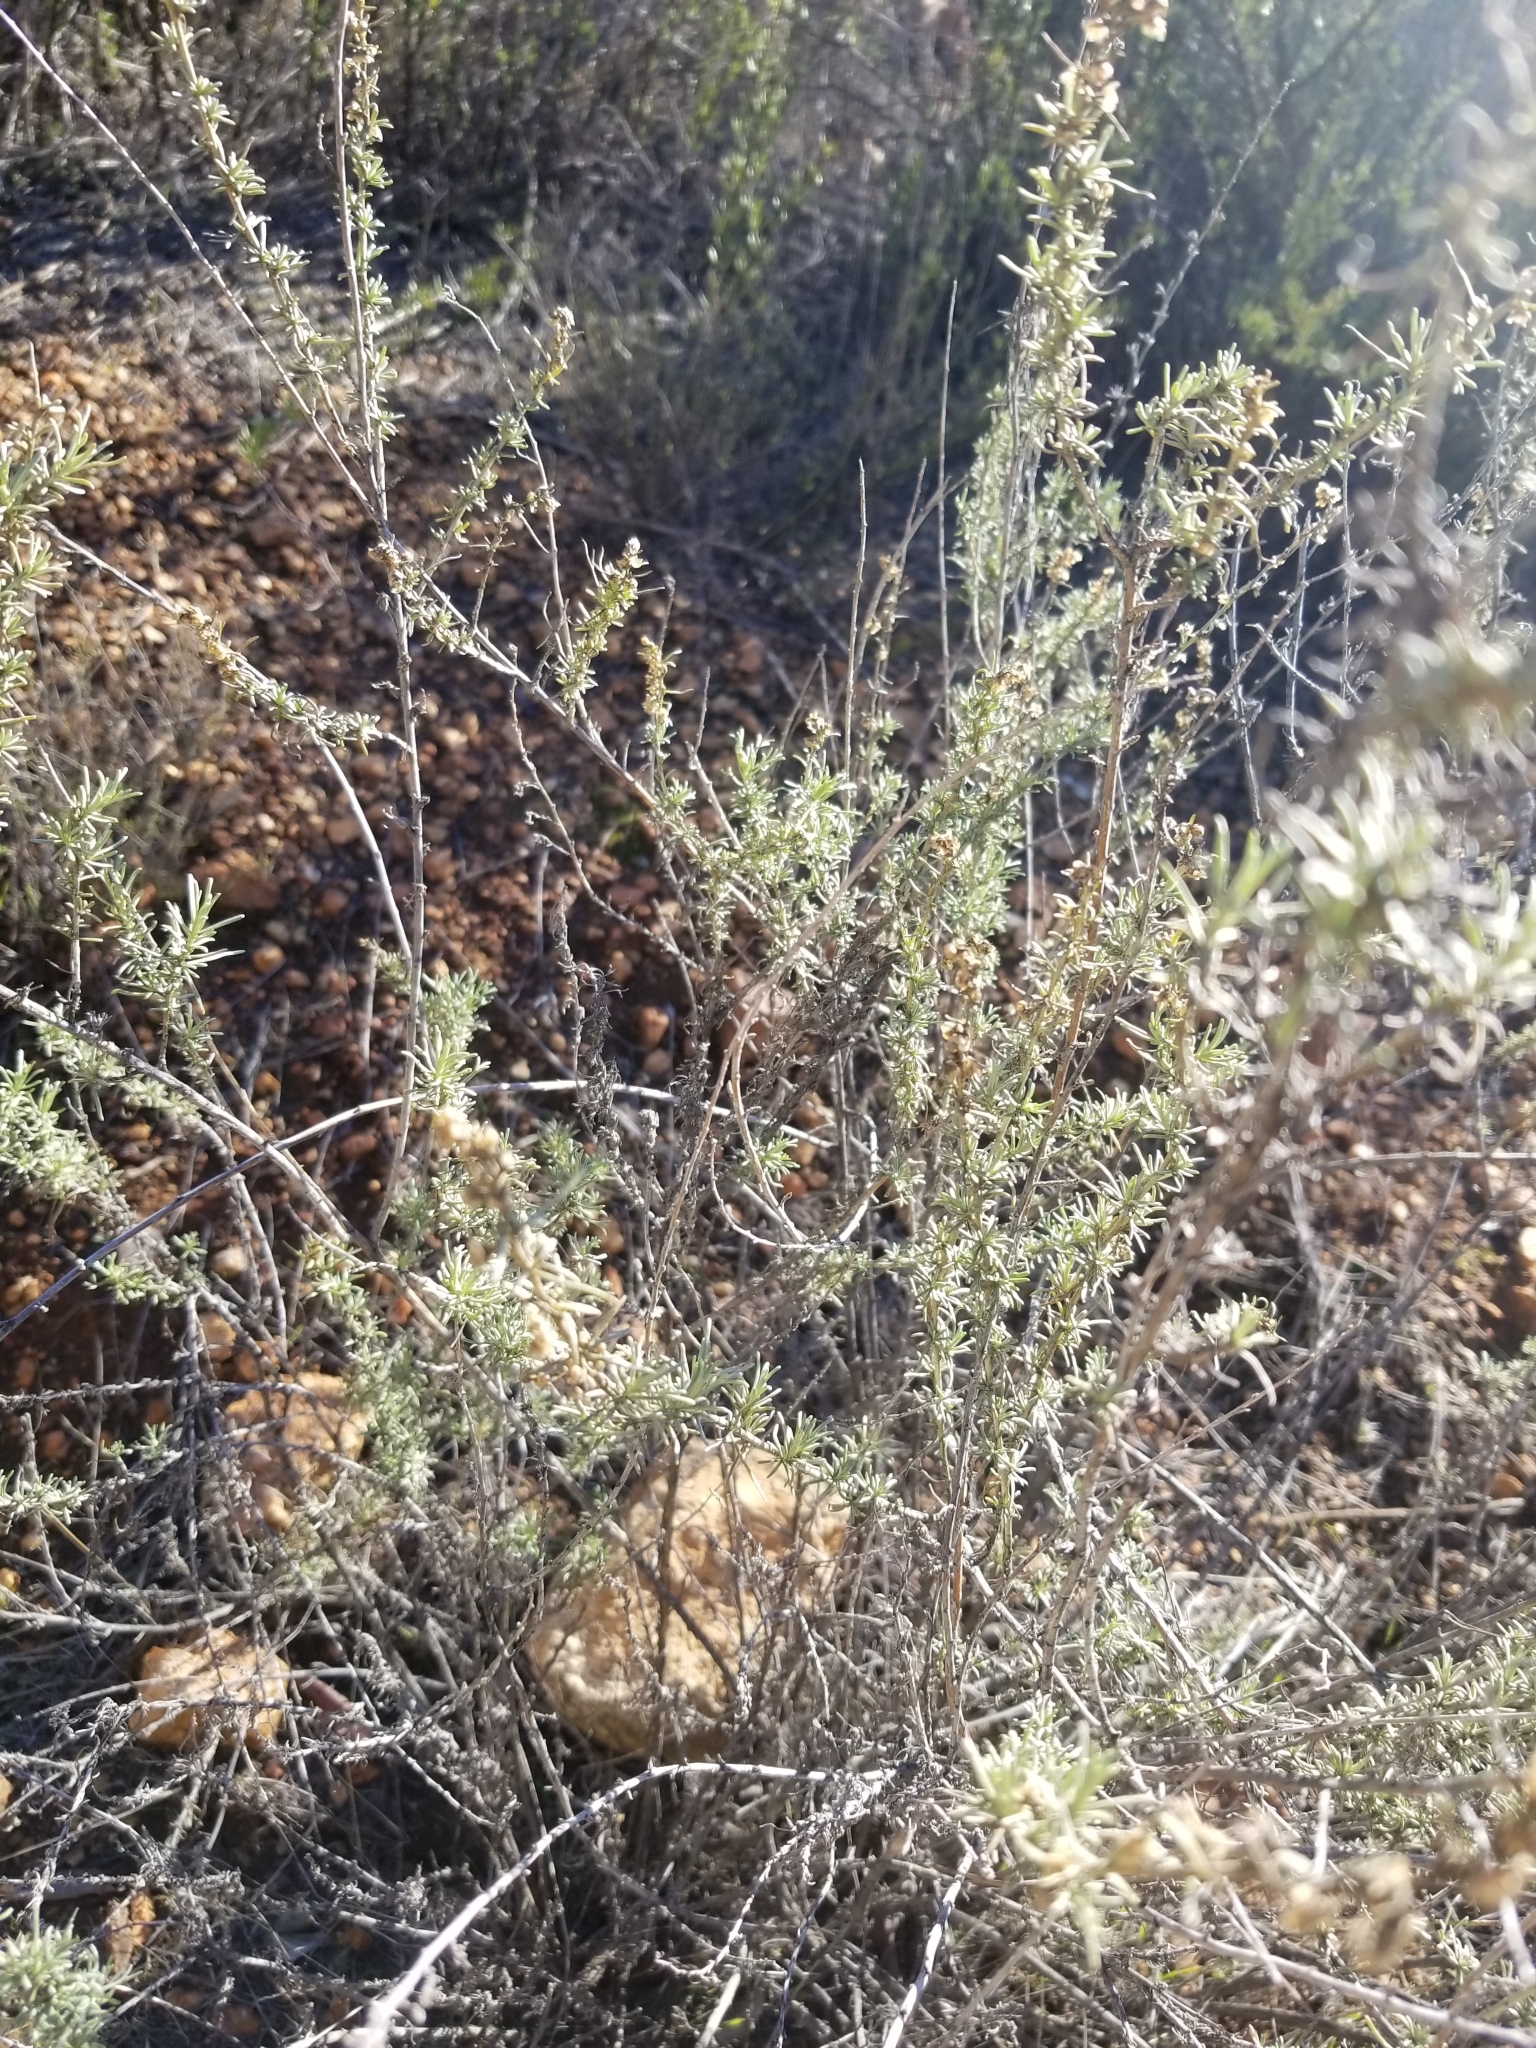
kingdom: Plantae
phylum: Tracheophyta
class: Magnoliopsida
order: Asterales
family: Asteraceae
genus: Artemisia
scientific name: Artemisia californica
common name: California sagebrush
